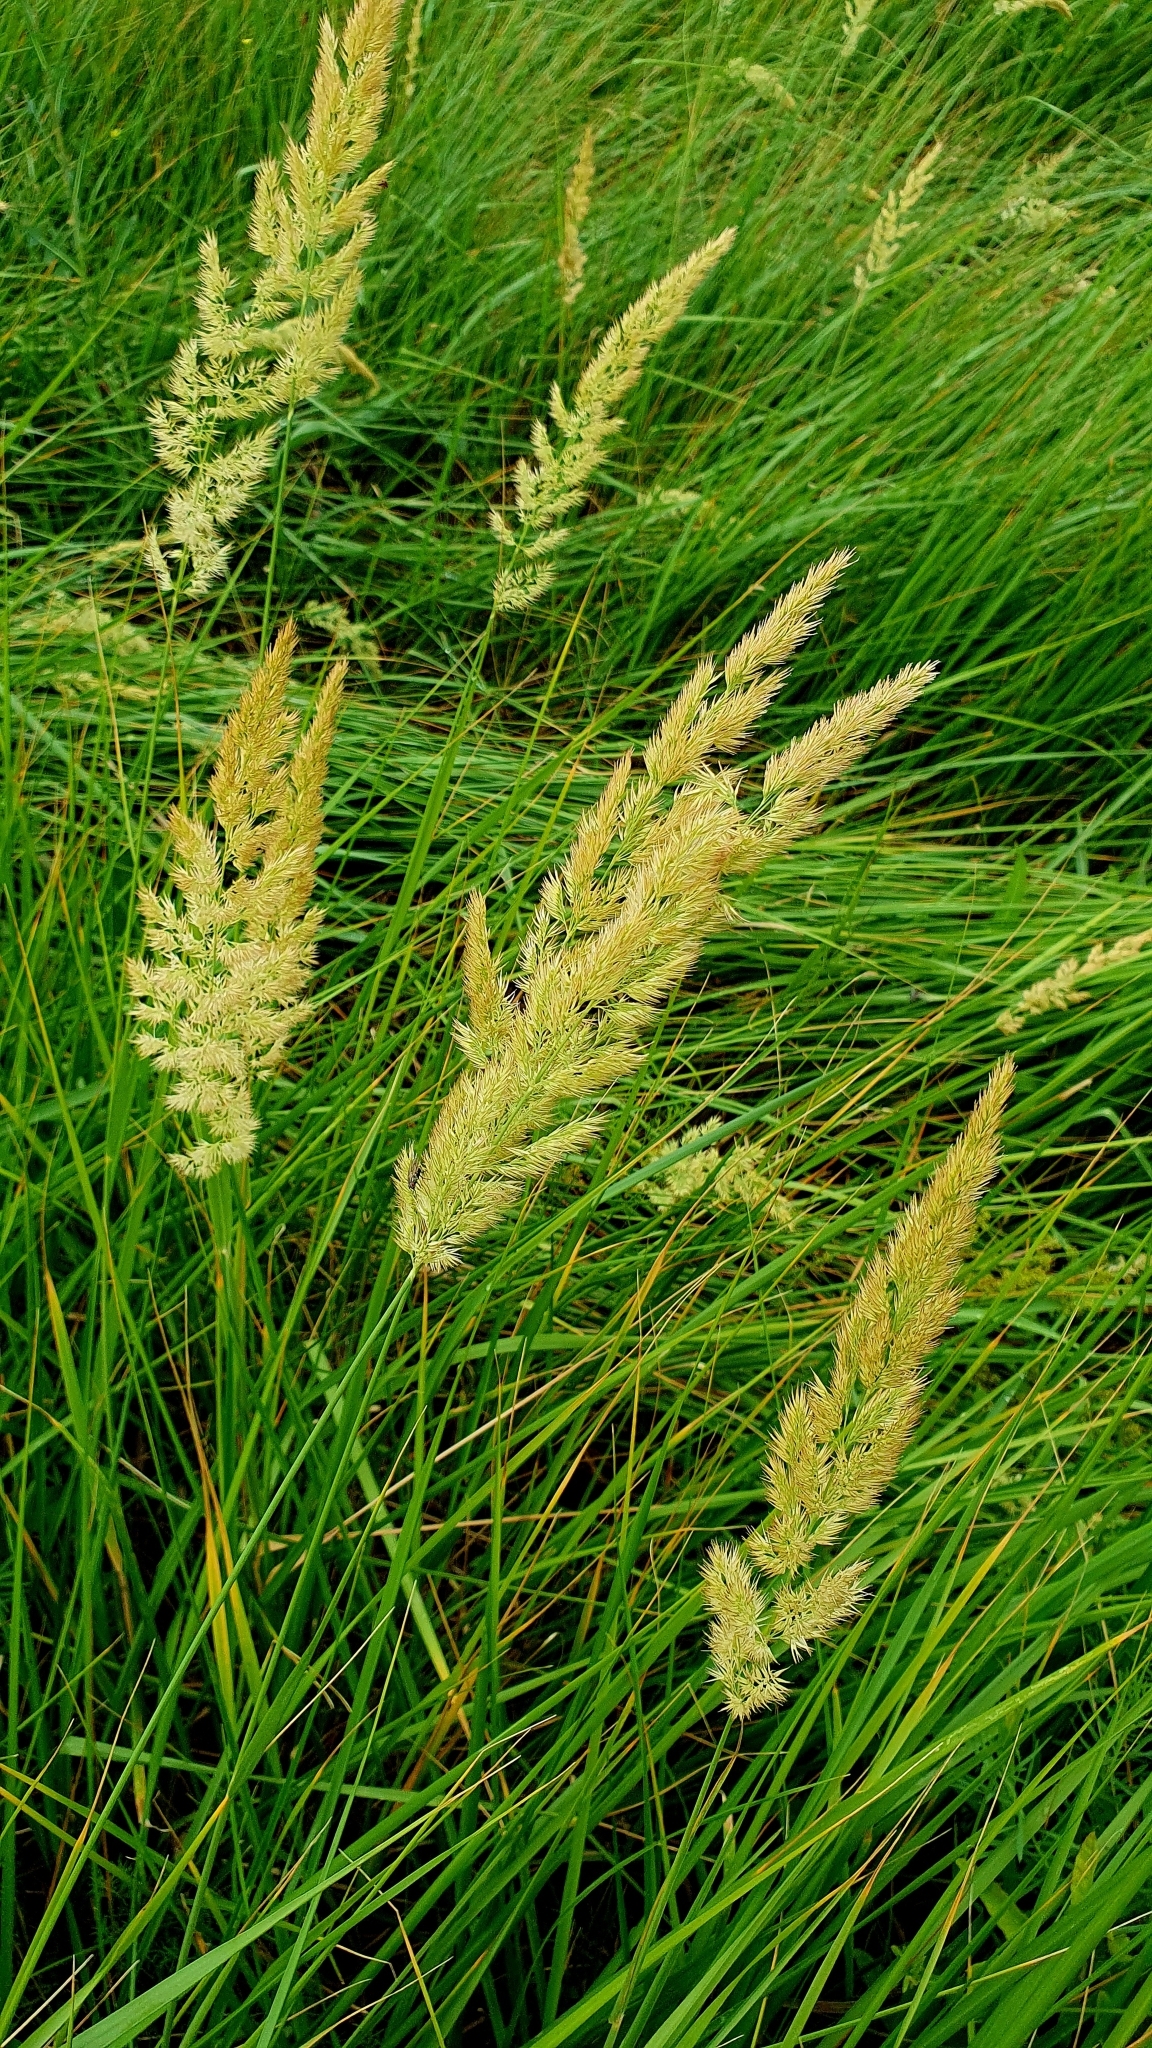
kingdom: Plantae
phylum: Tracheophyta
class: Liliopsida
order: Poales
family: Poaceae
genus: Calamagrostis
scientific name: Calamagrostis epigejos
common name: Wood small-reed
